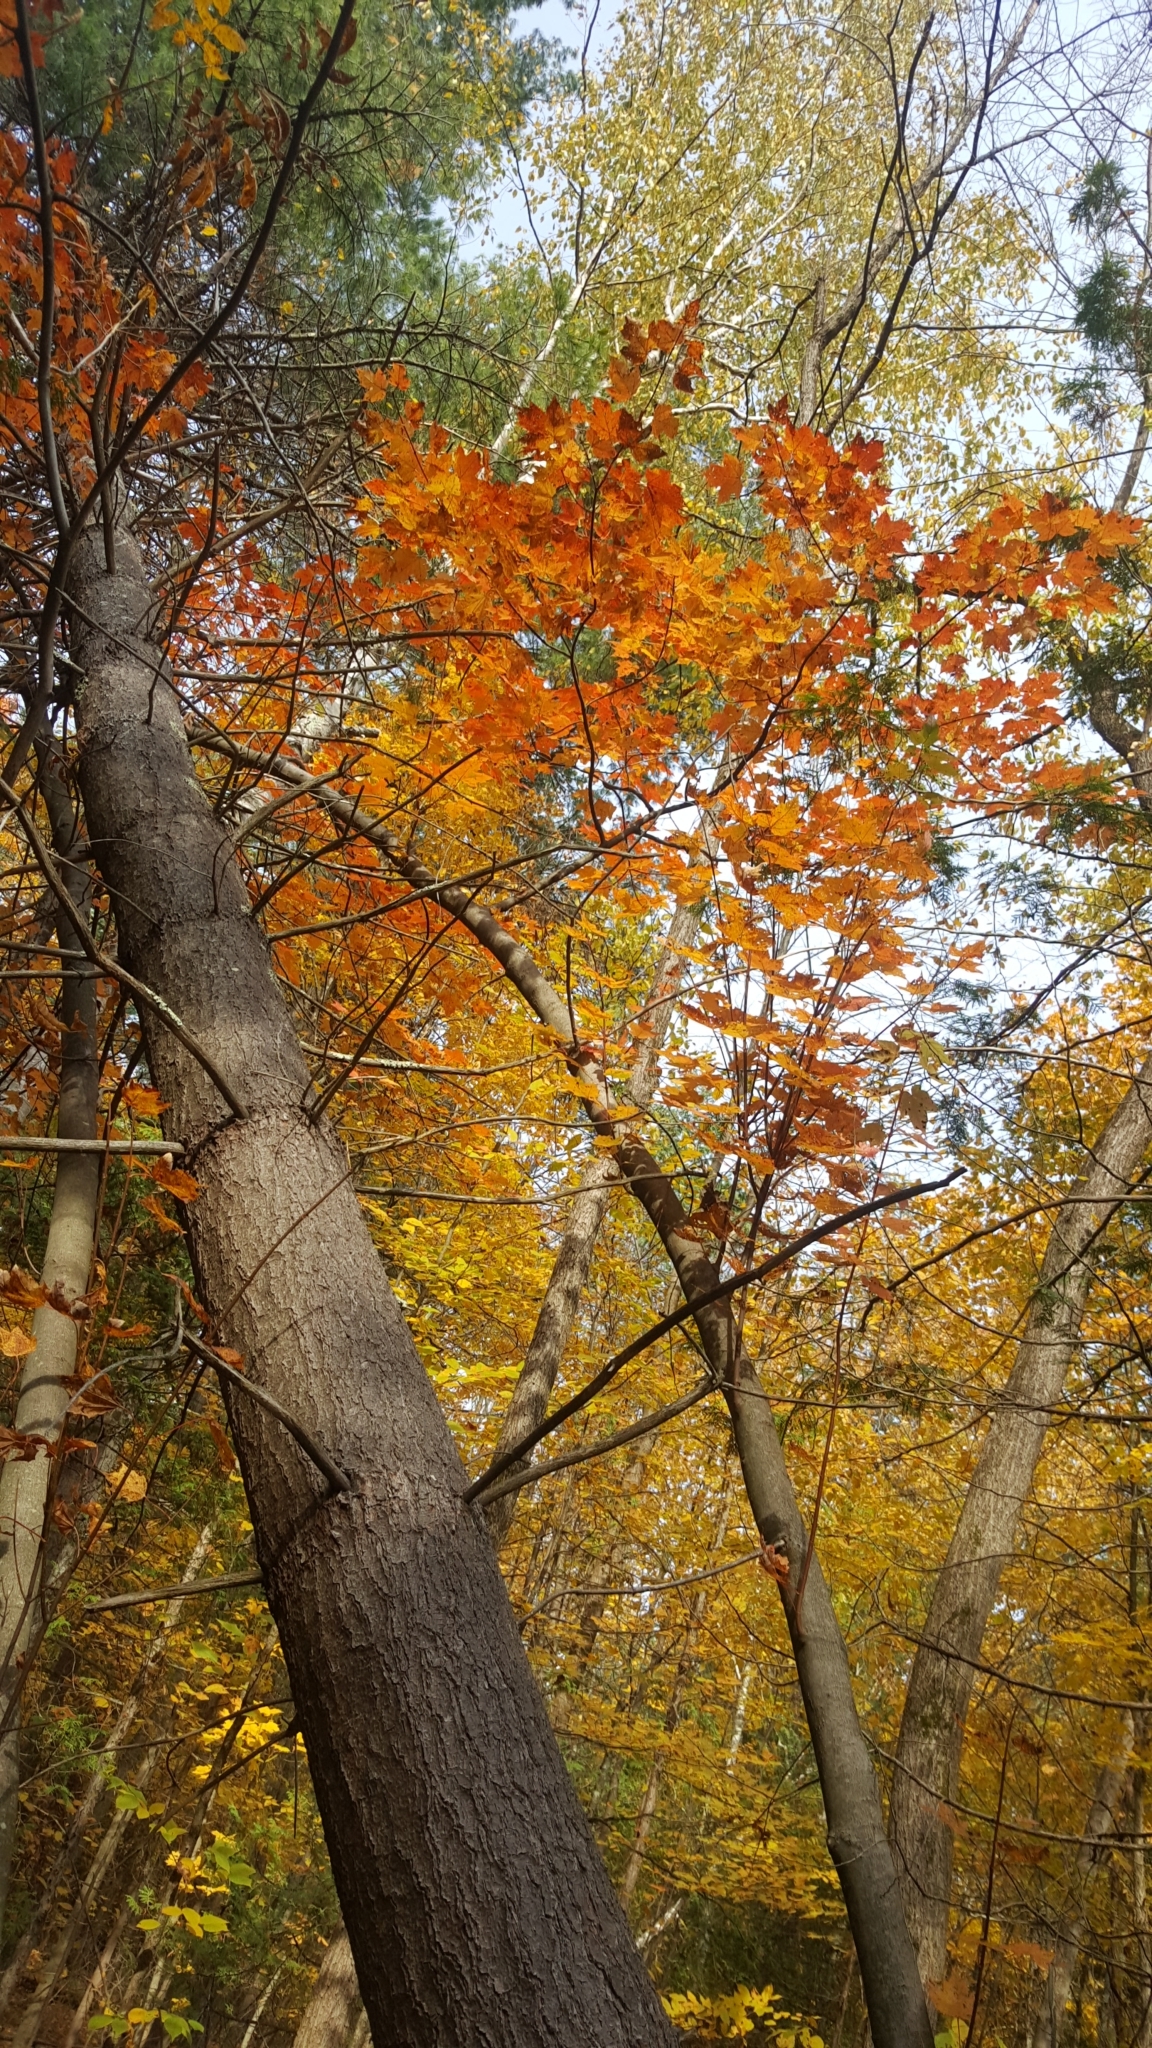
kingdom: Plantae
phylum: Tracheophyta
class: Magnoliopsida
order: Sapindales
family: Sapindaceae
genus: Acer
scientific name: Acer rubrum
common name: Red maple
